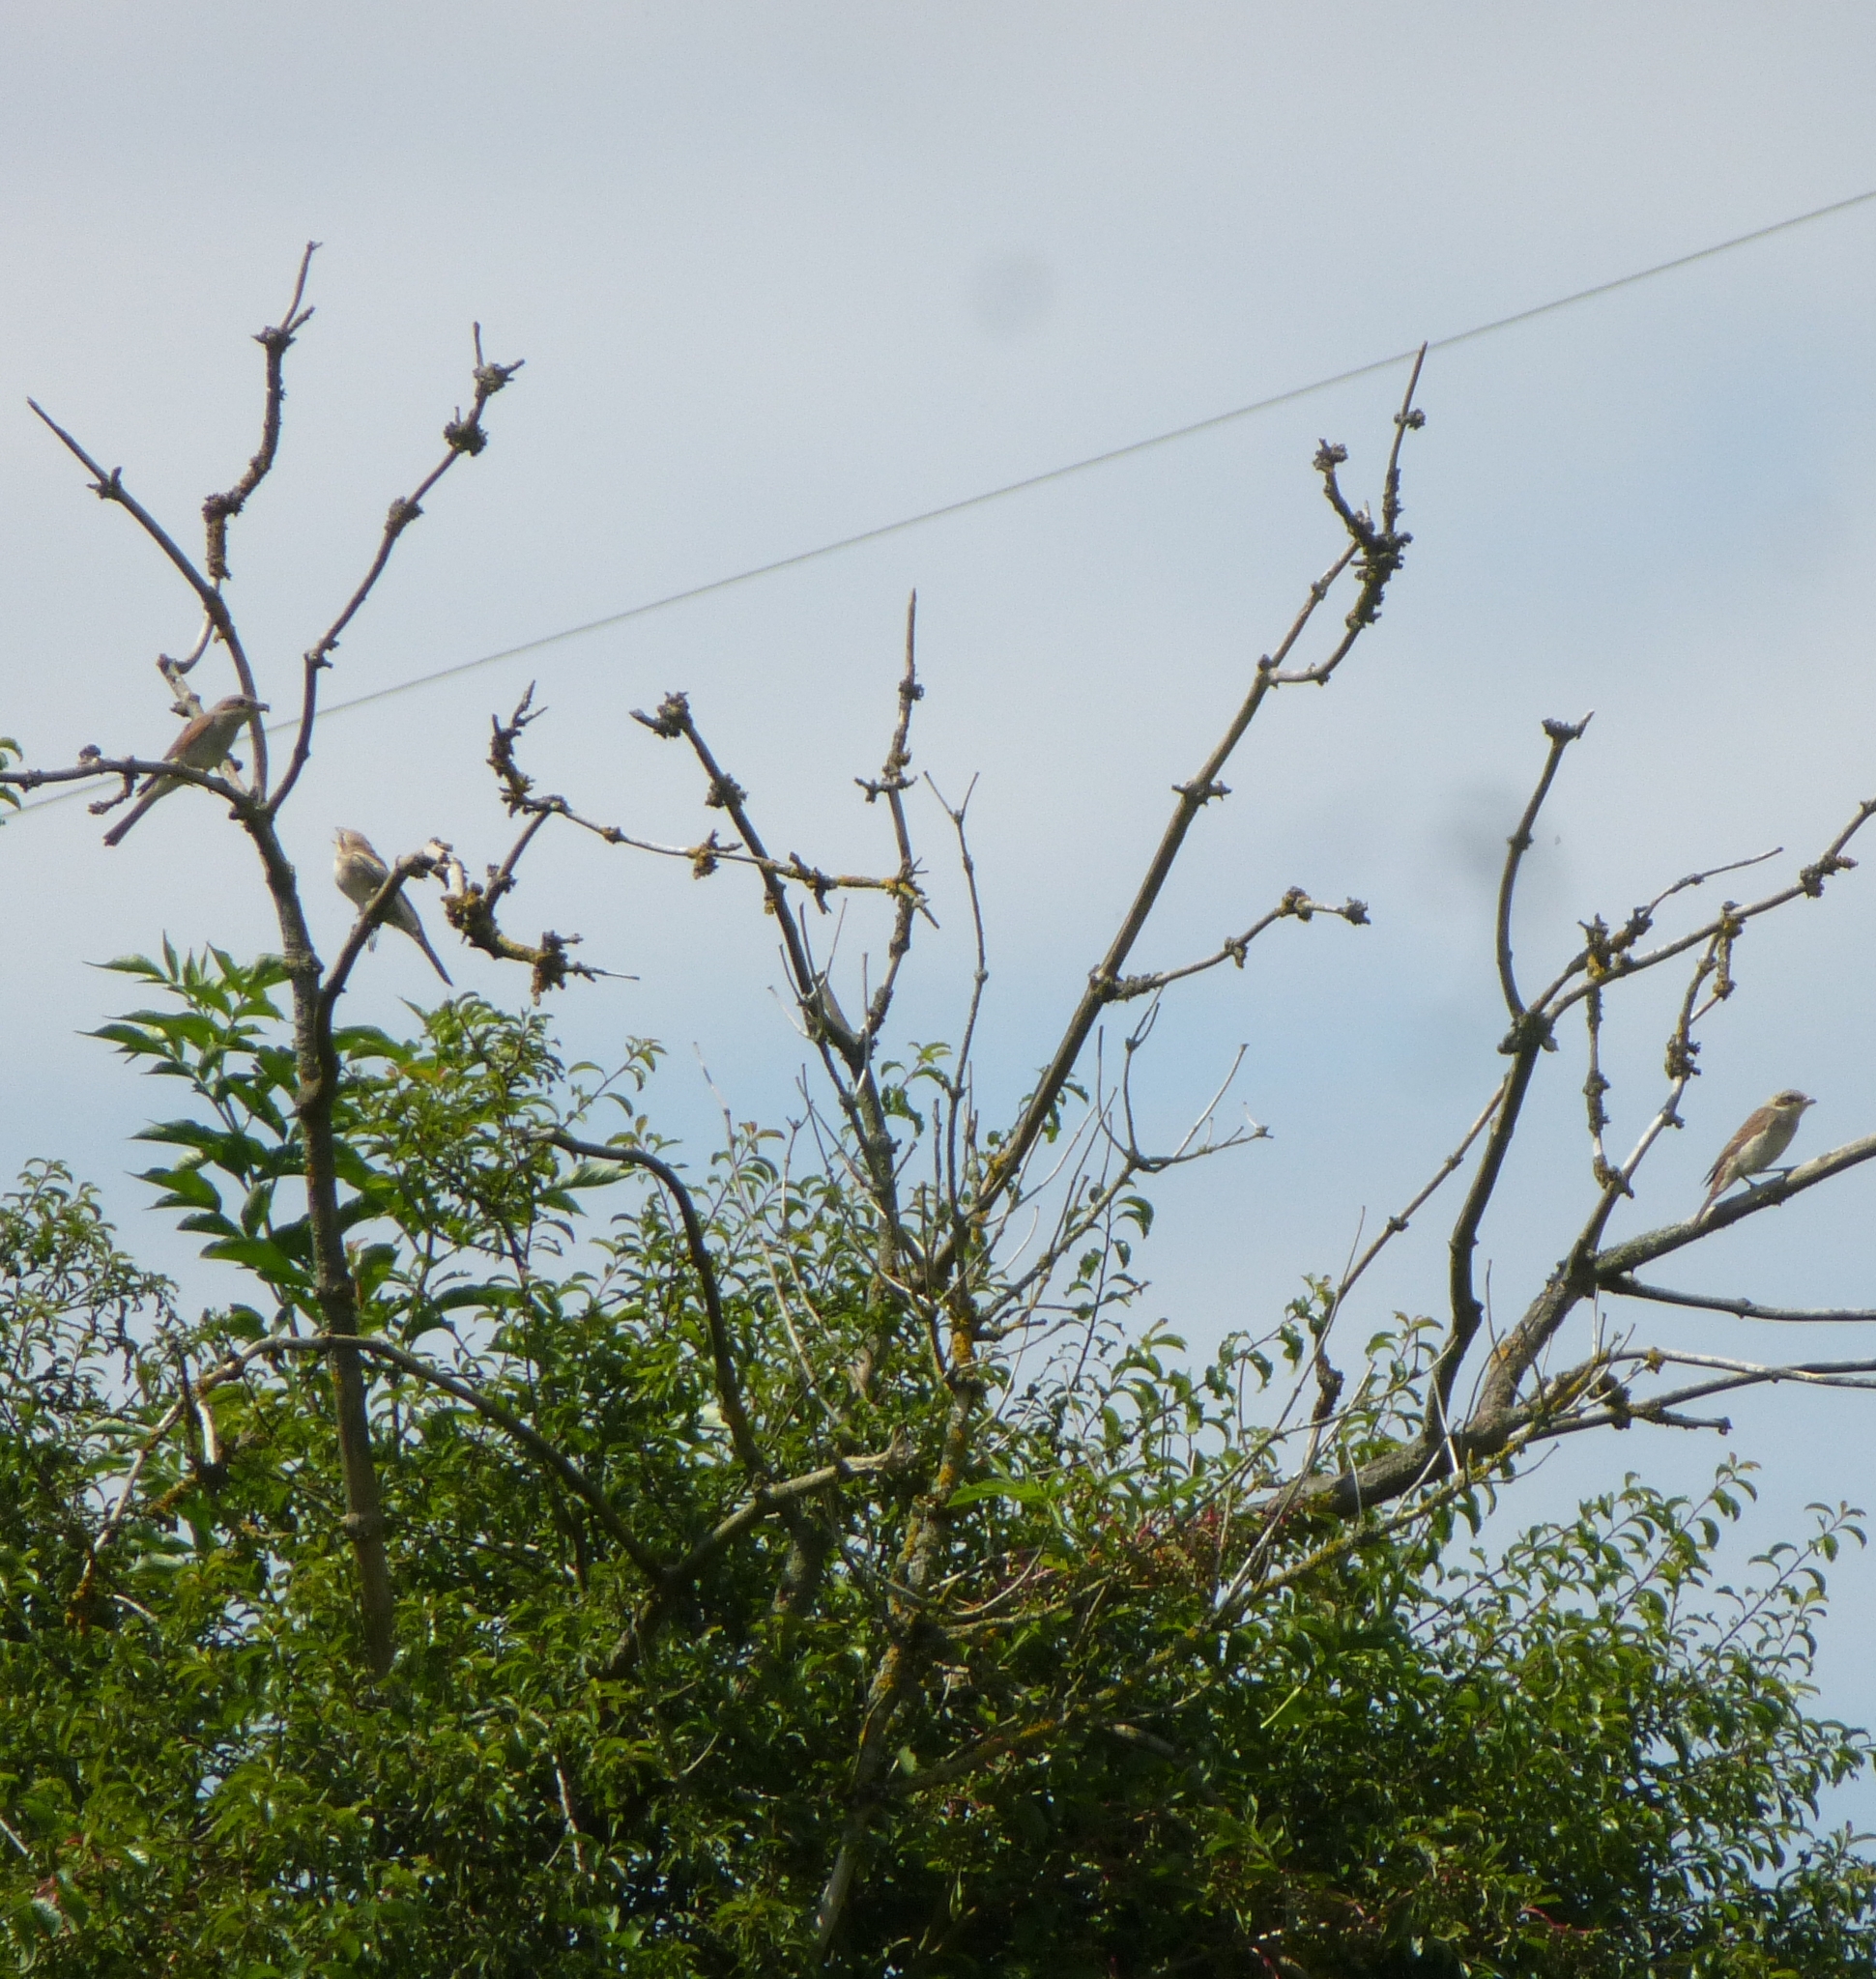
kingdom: Animalia
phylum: Chordata
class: Aves
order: Passeriformes
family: Laniidae
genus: Lanius
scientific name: Lanius collurio
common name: Red-backed shrike
